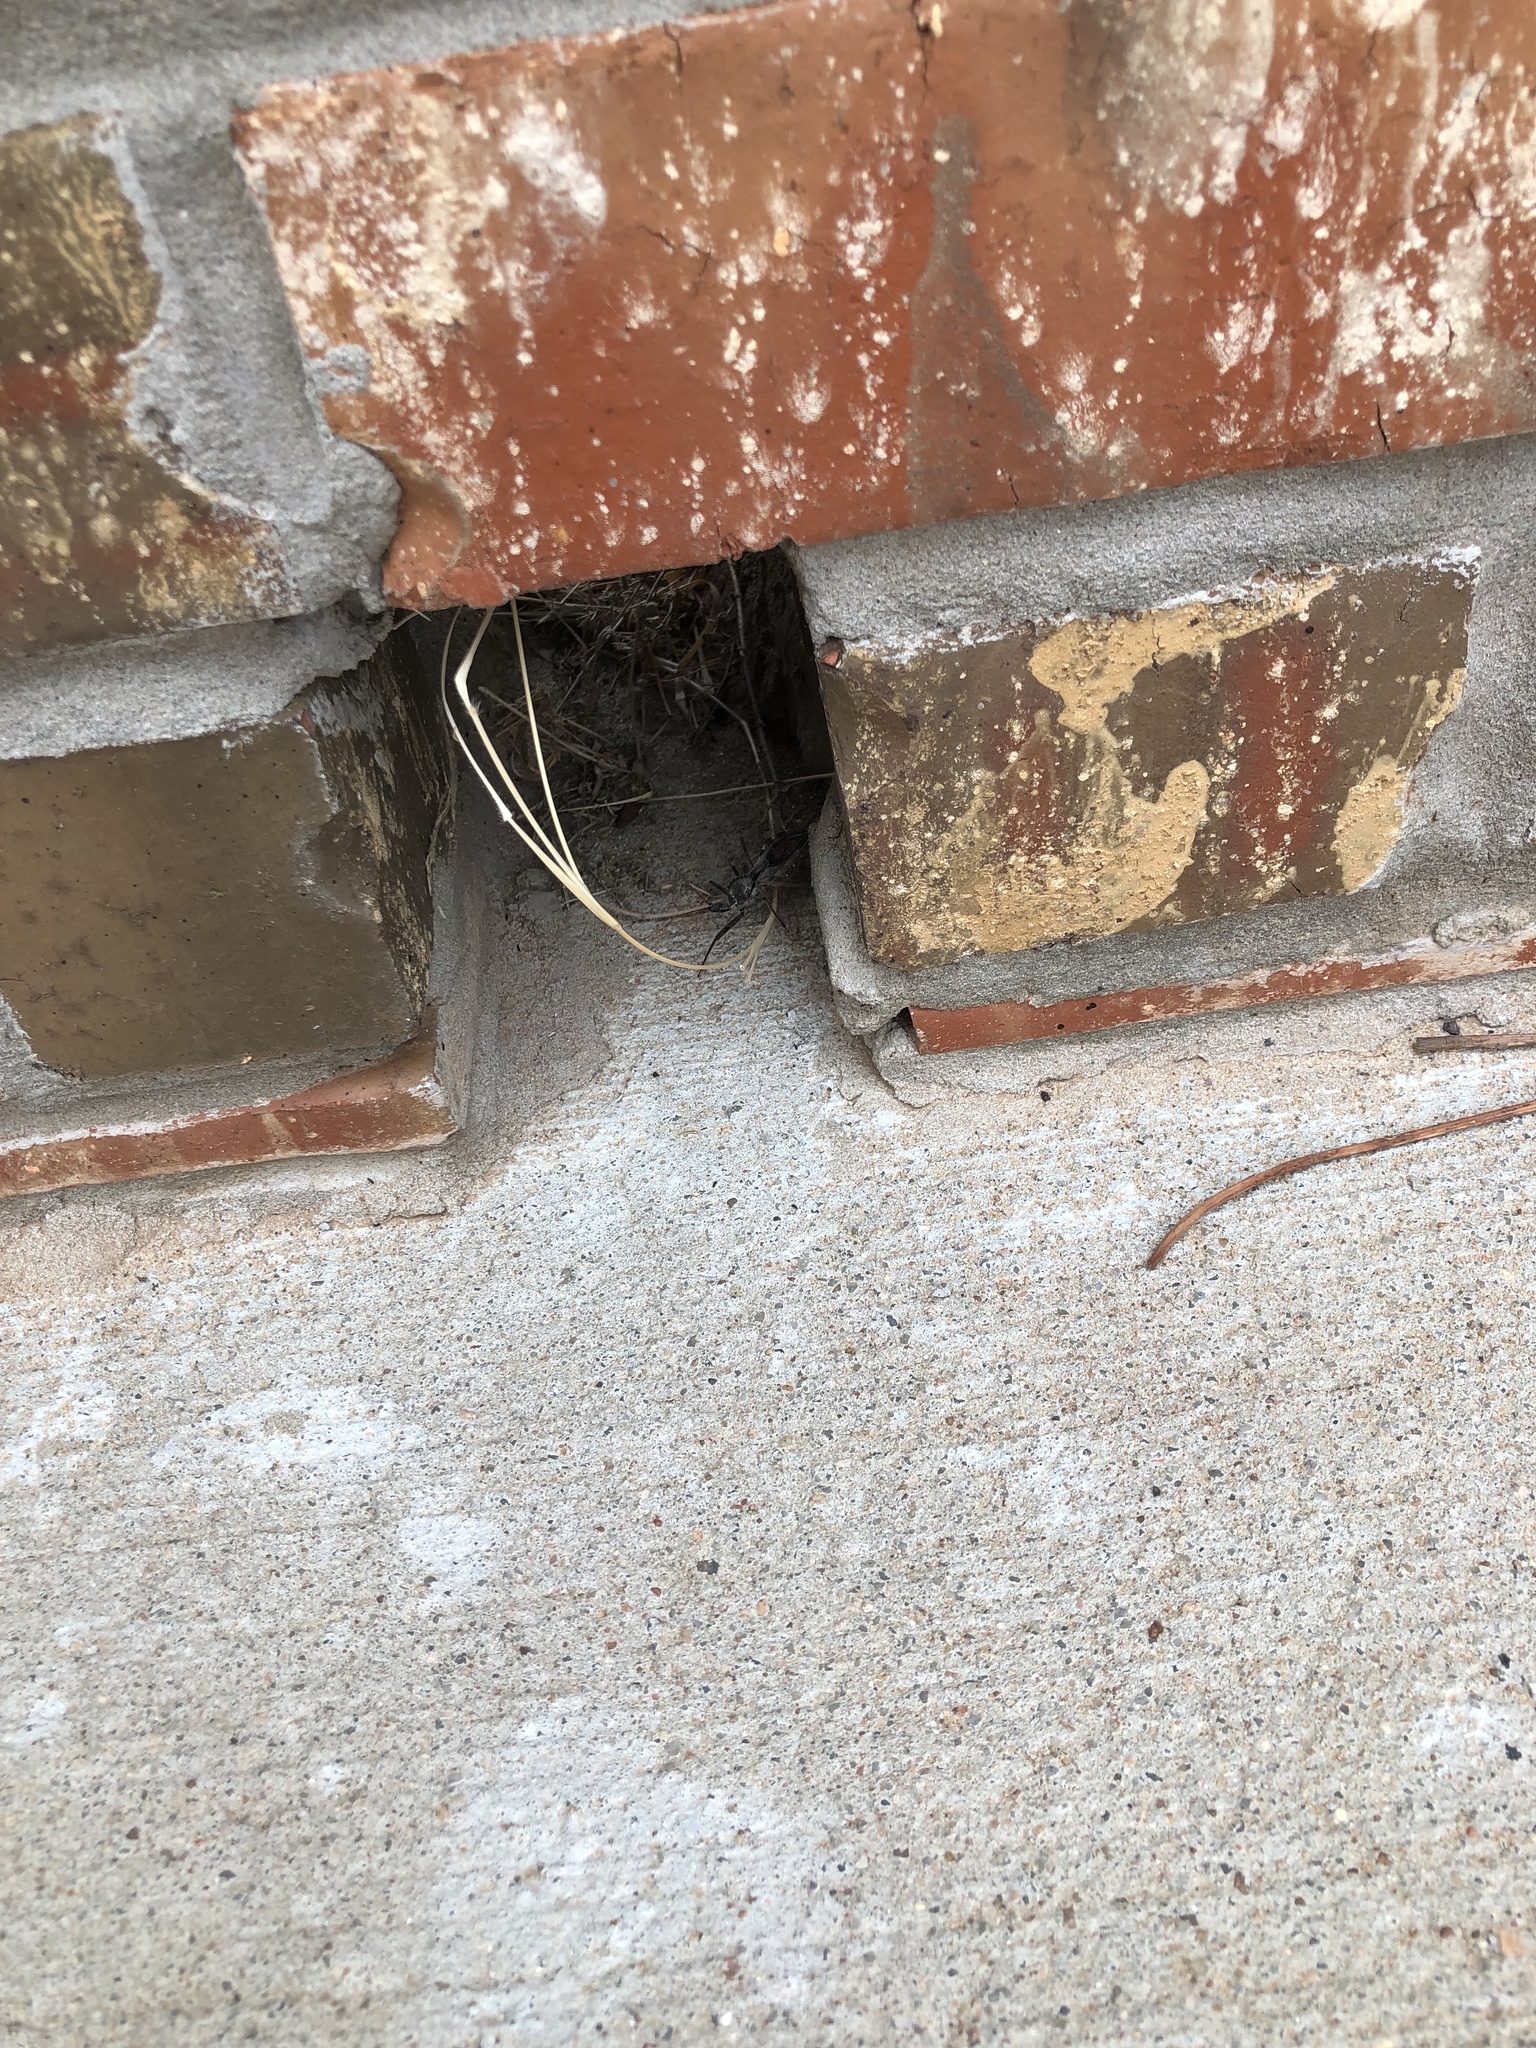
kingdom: Animalia
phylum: Arthropoda
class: Insecta
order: Hemiptera
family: Reduviidae
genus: Arilus
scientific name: Arilus cristatus
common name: North american wheel bug
